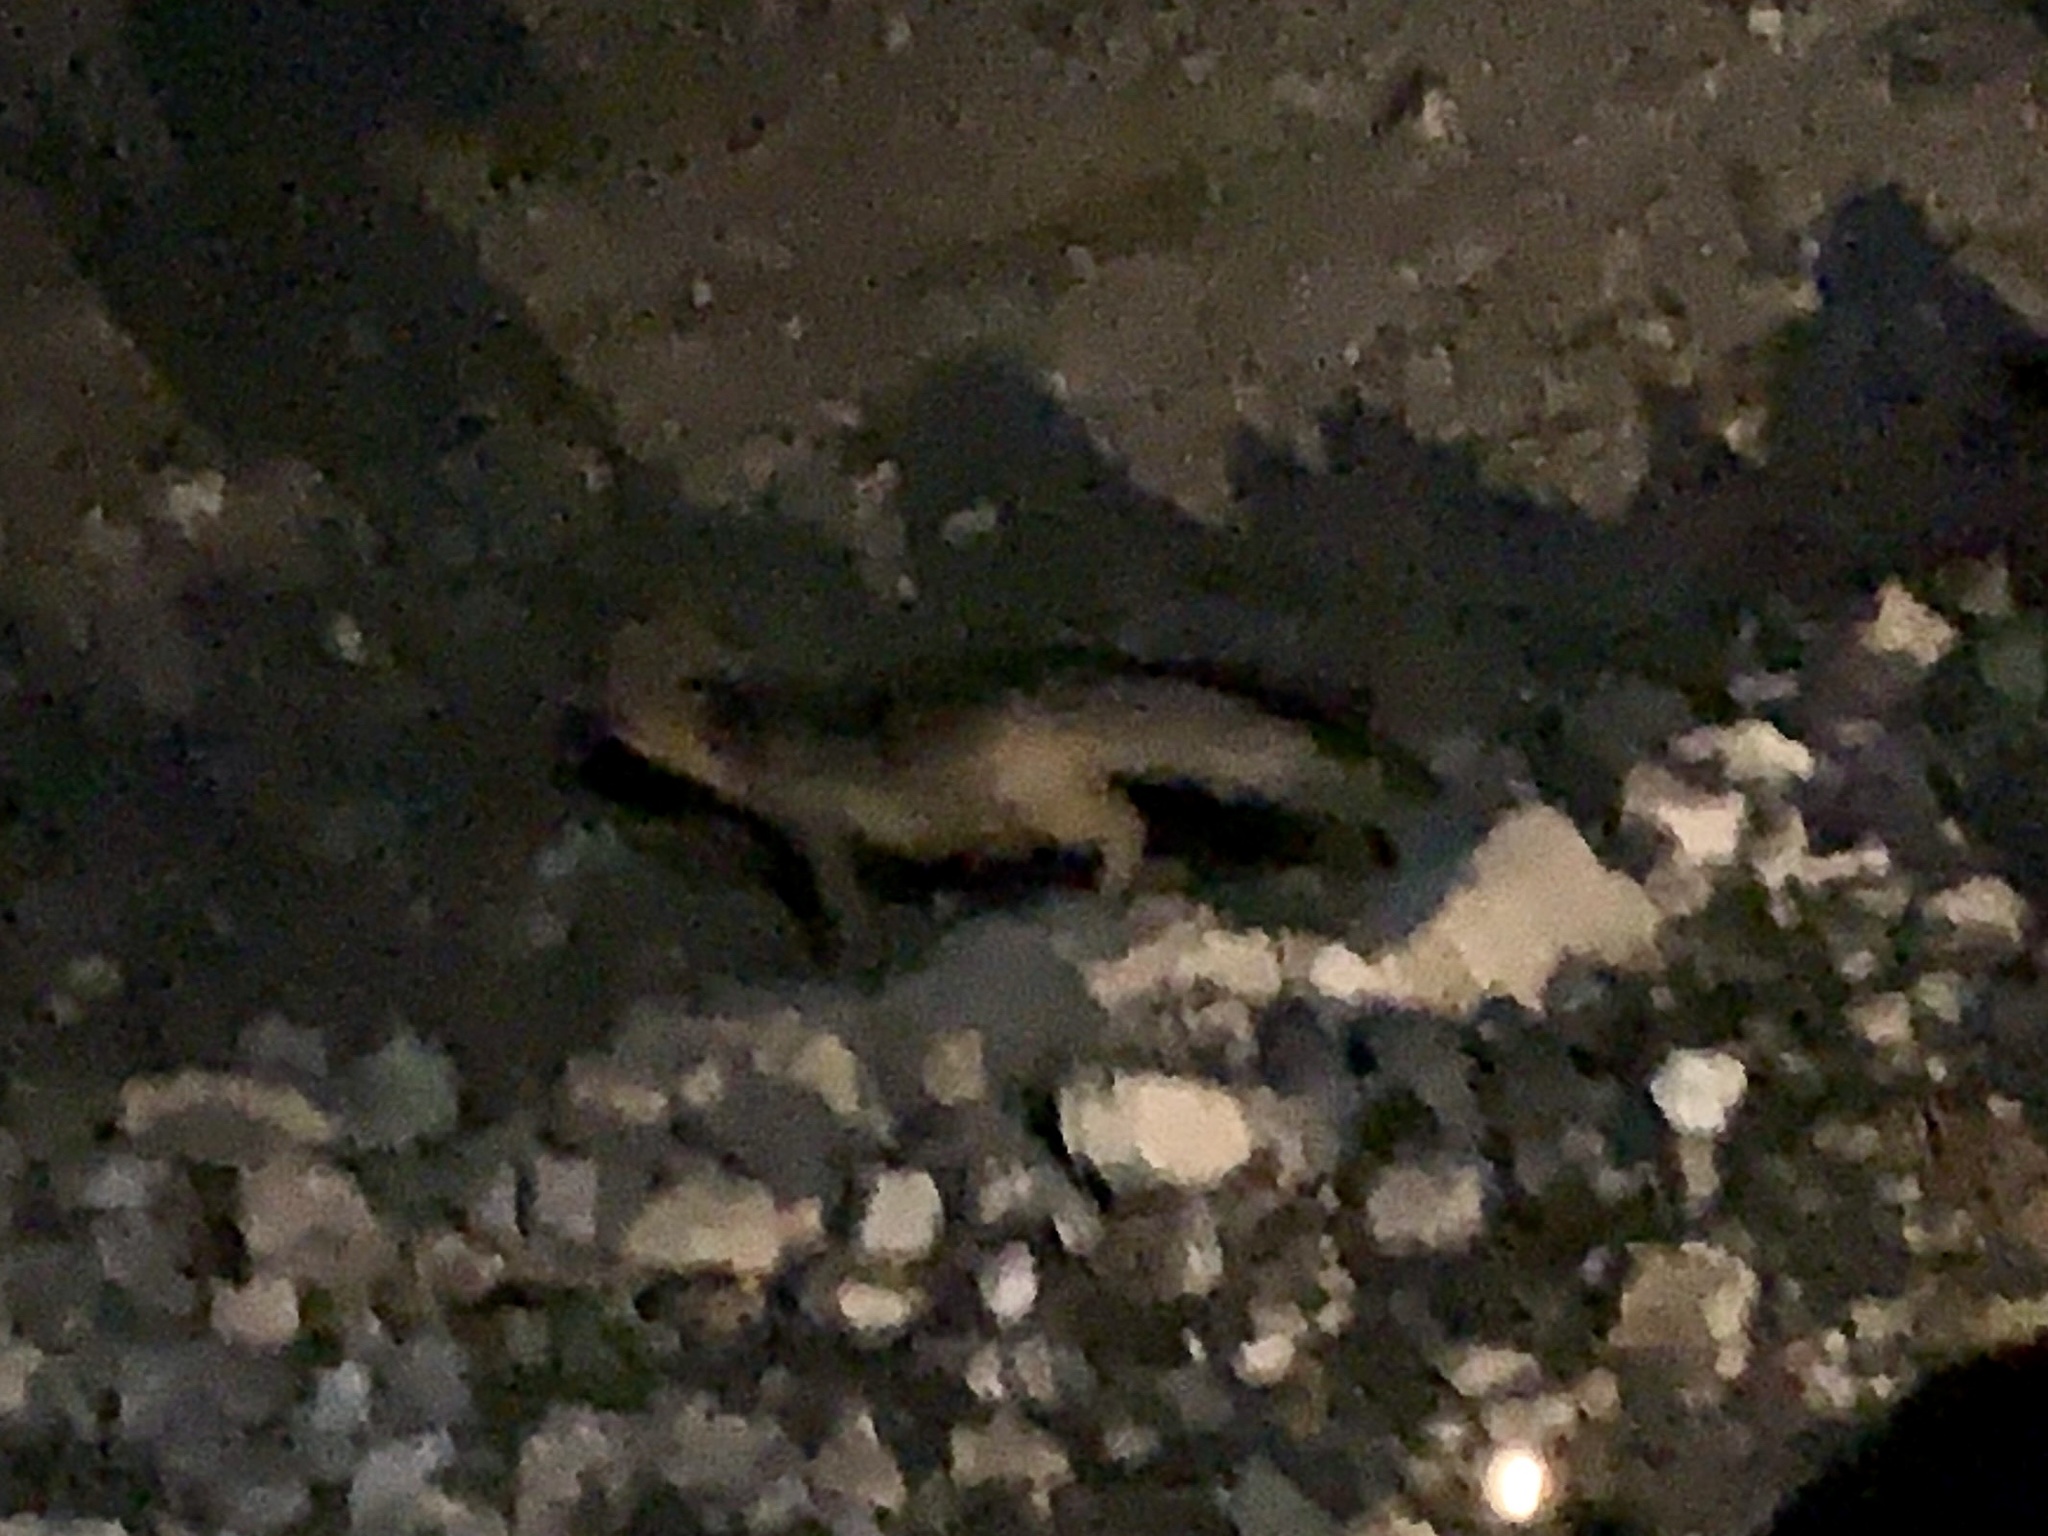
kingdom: Animalia
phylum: Chordata
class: Mammalia
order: Carnivora
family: Canidae
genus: Urocyon
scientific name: Urocyon cinereoargenteus
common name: Gray fox
